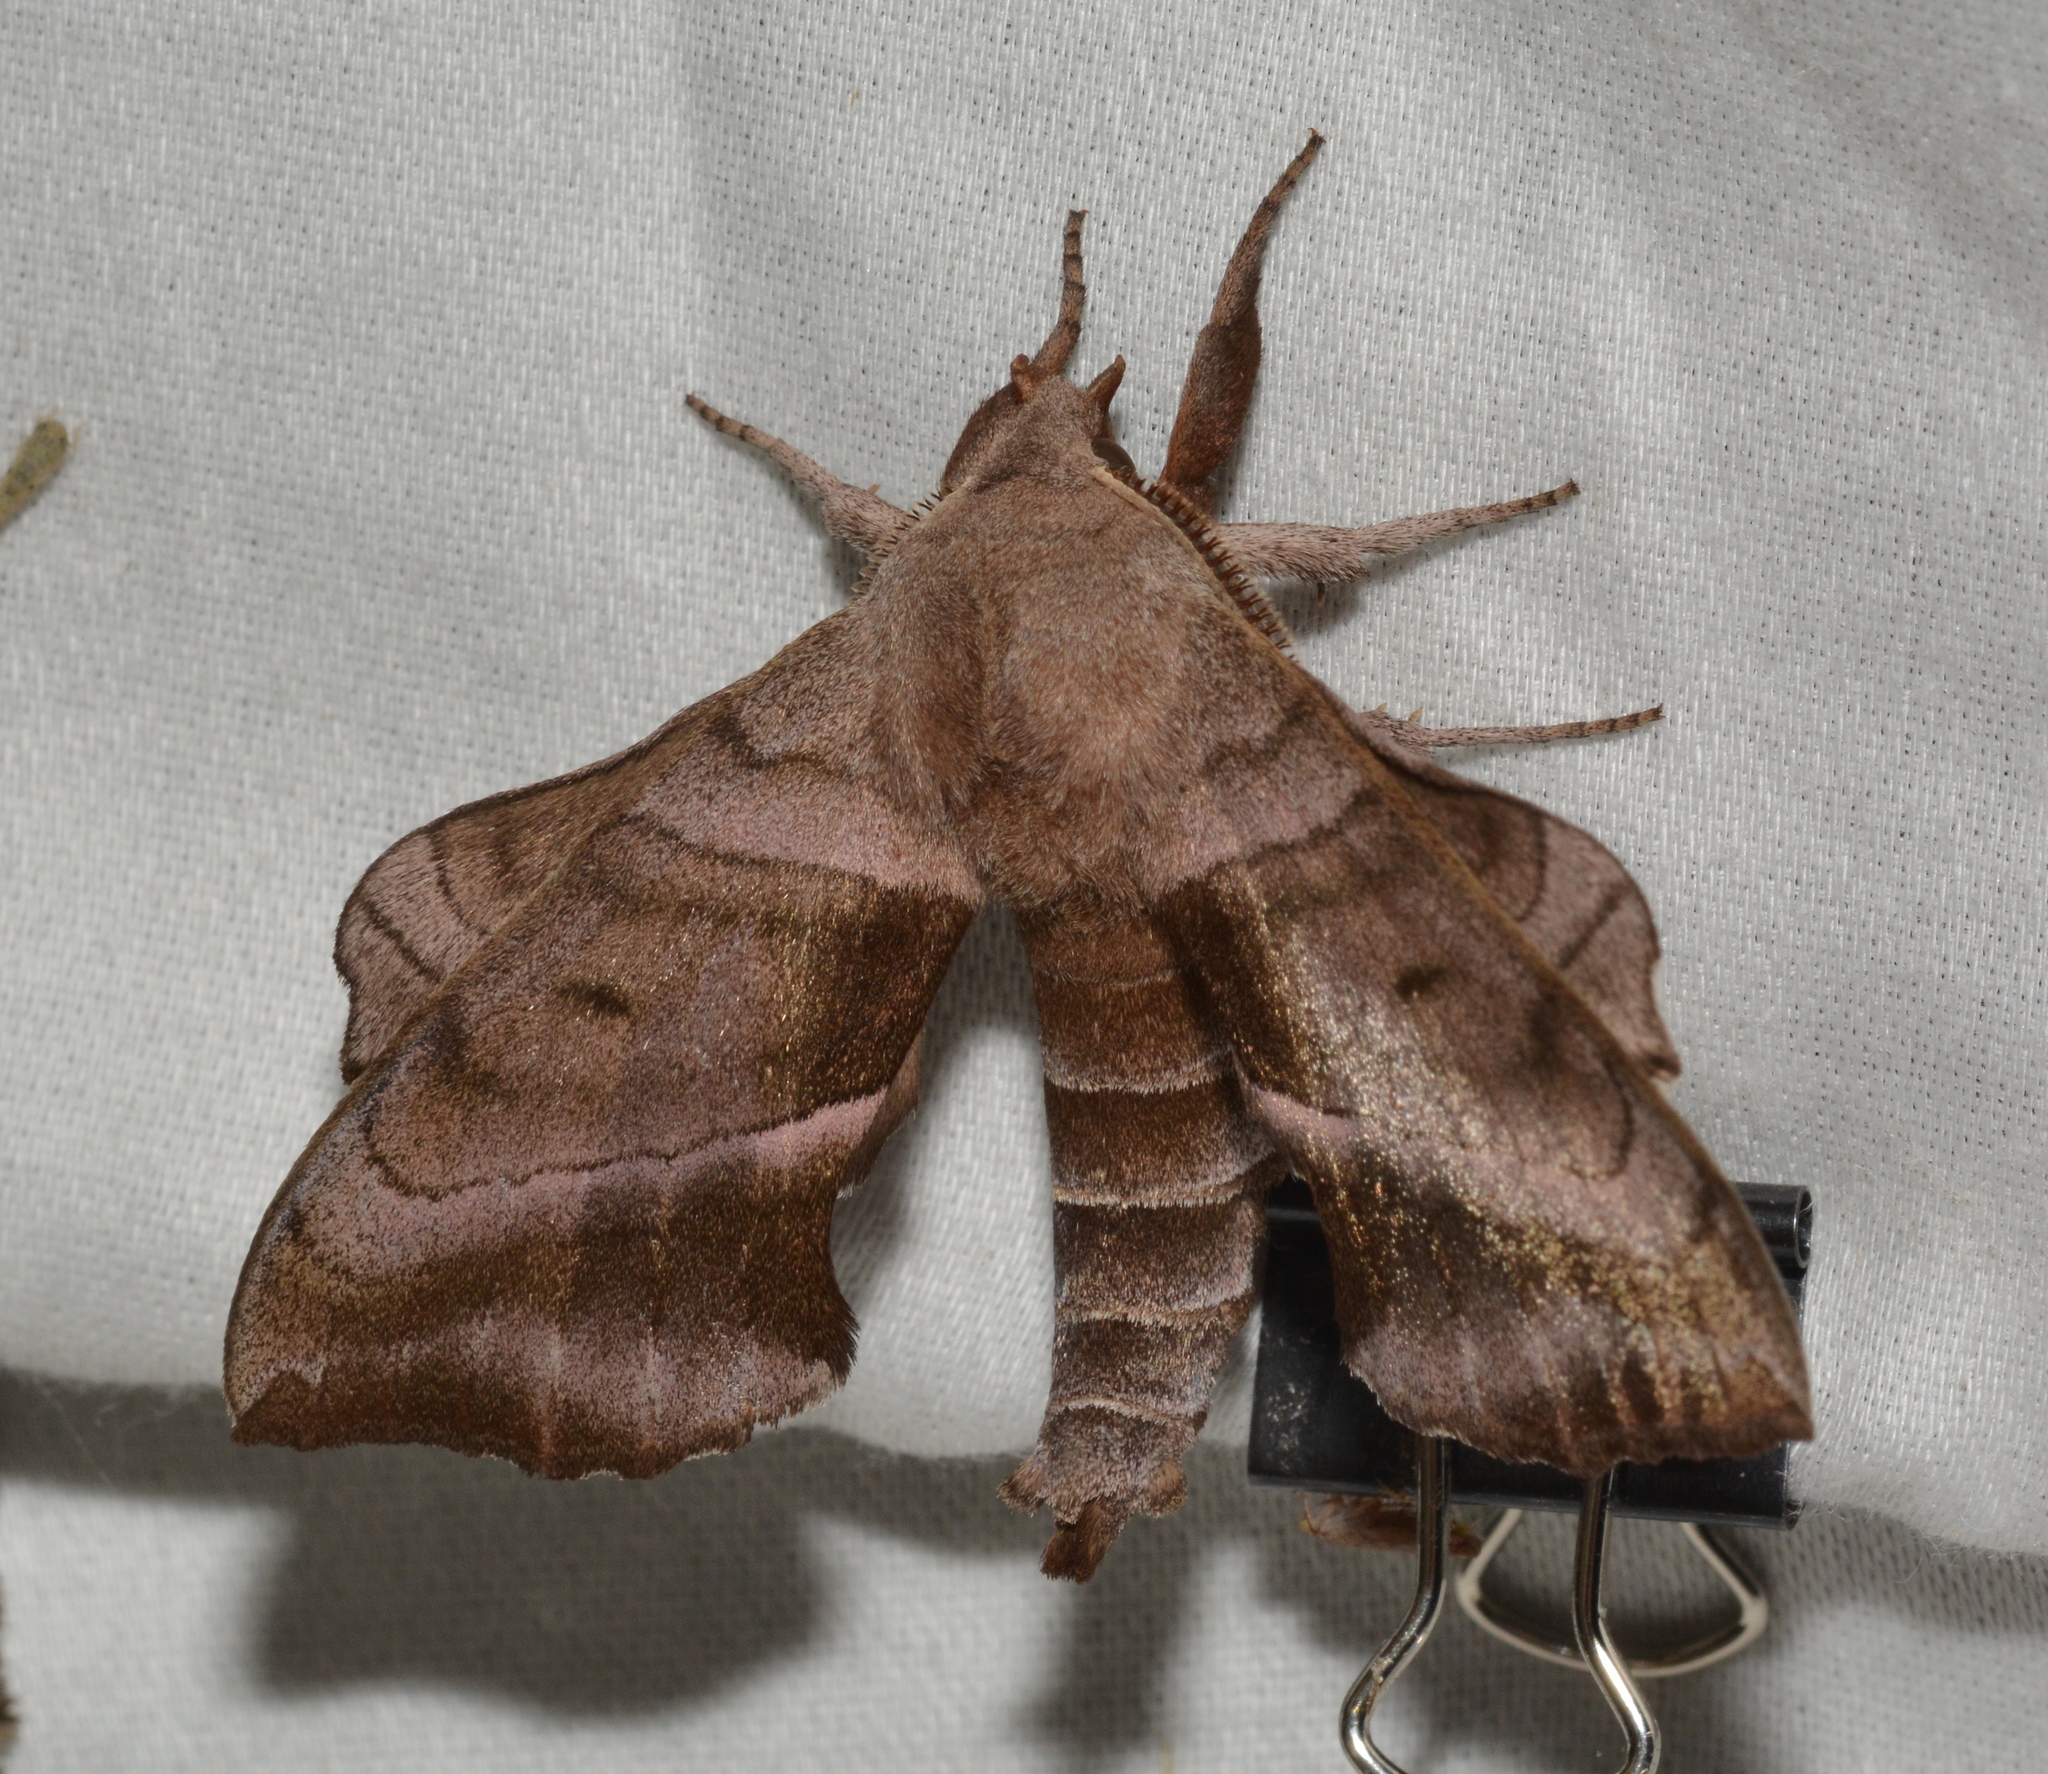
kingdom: Animalia
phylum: Arthropoda
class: Insecta
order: Lepidoptera
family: Sphingidae
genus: Amorpha
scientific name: Amorpha juglandis
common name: Walnut sphinx
